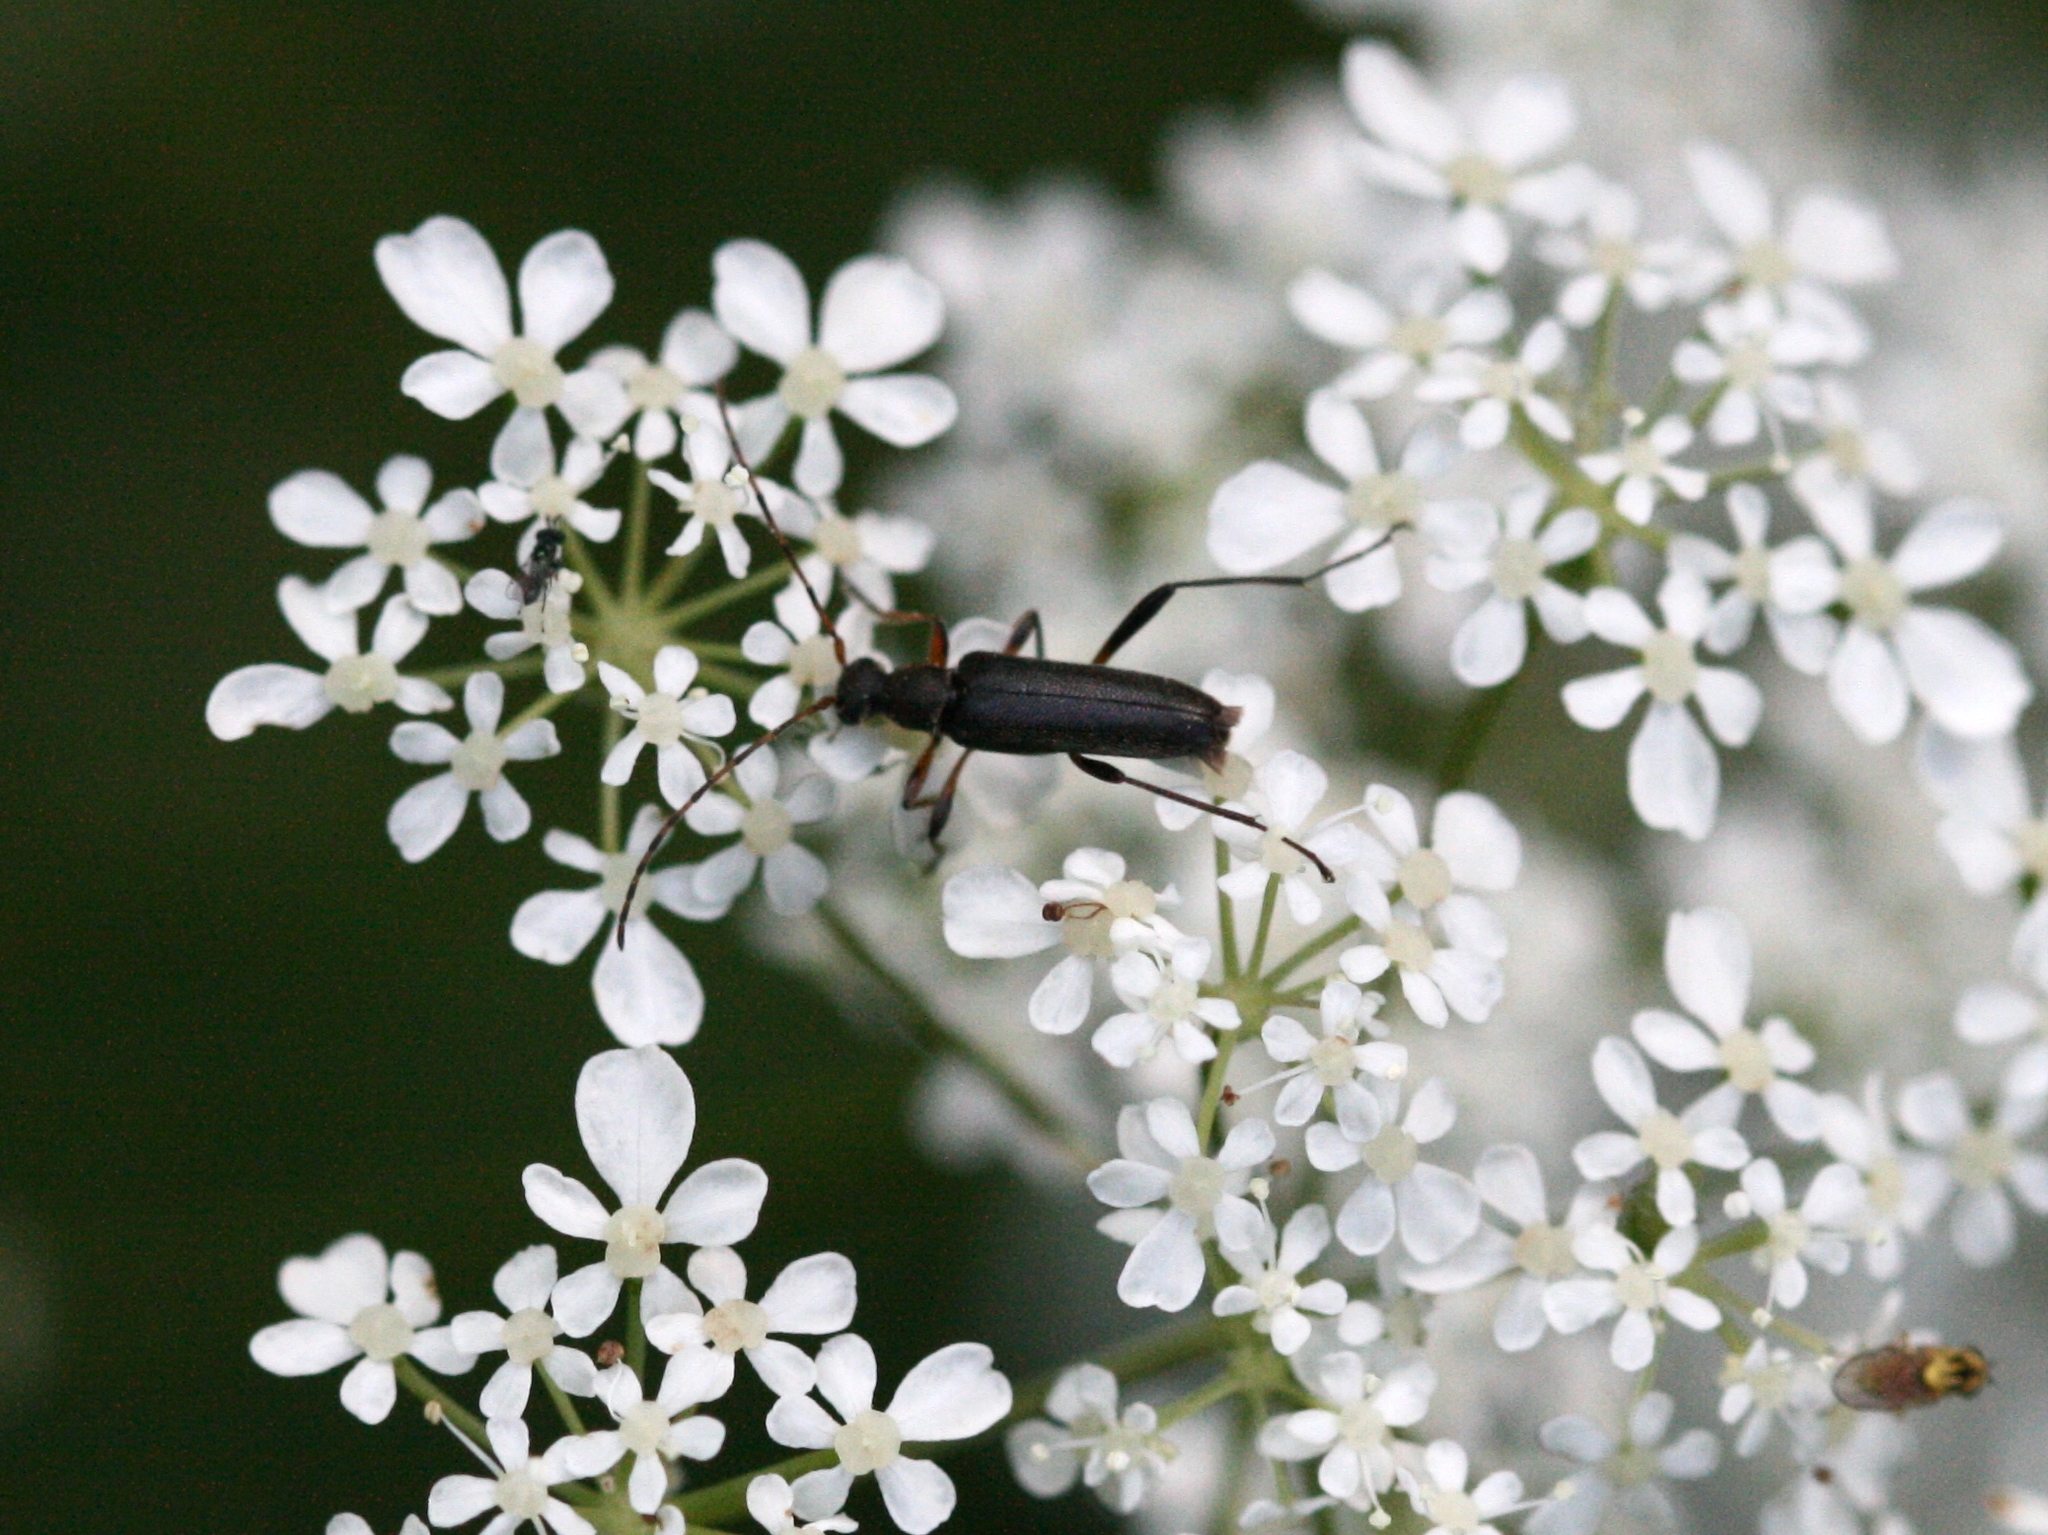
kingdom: Animalia
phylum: Arthropoda
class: Insecta
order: Coleoptera
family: Cerambycidae
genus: Grammoptera
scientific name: Grammoptera ruficornis
